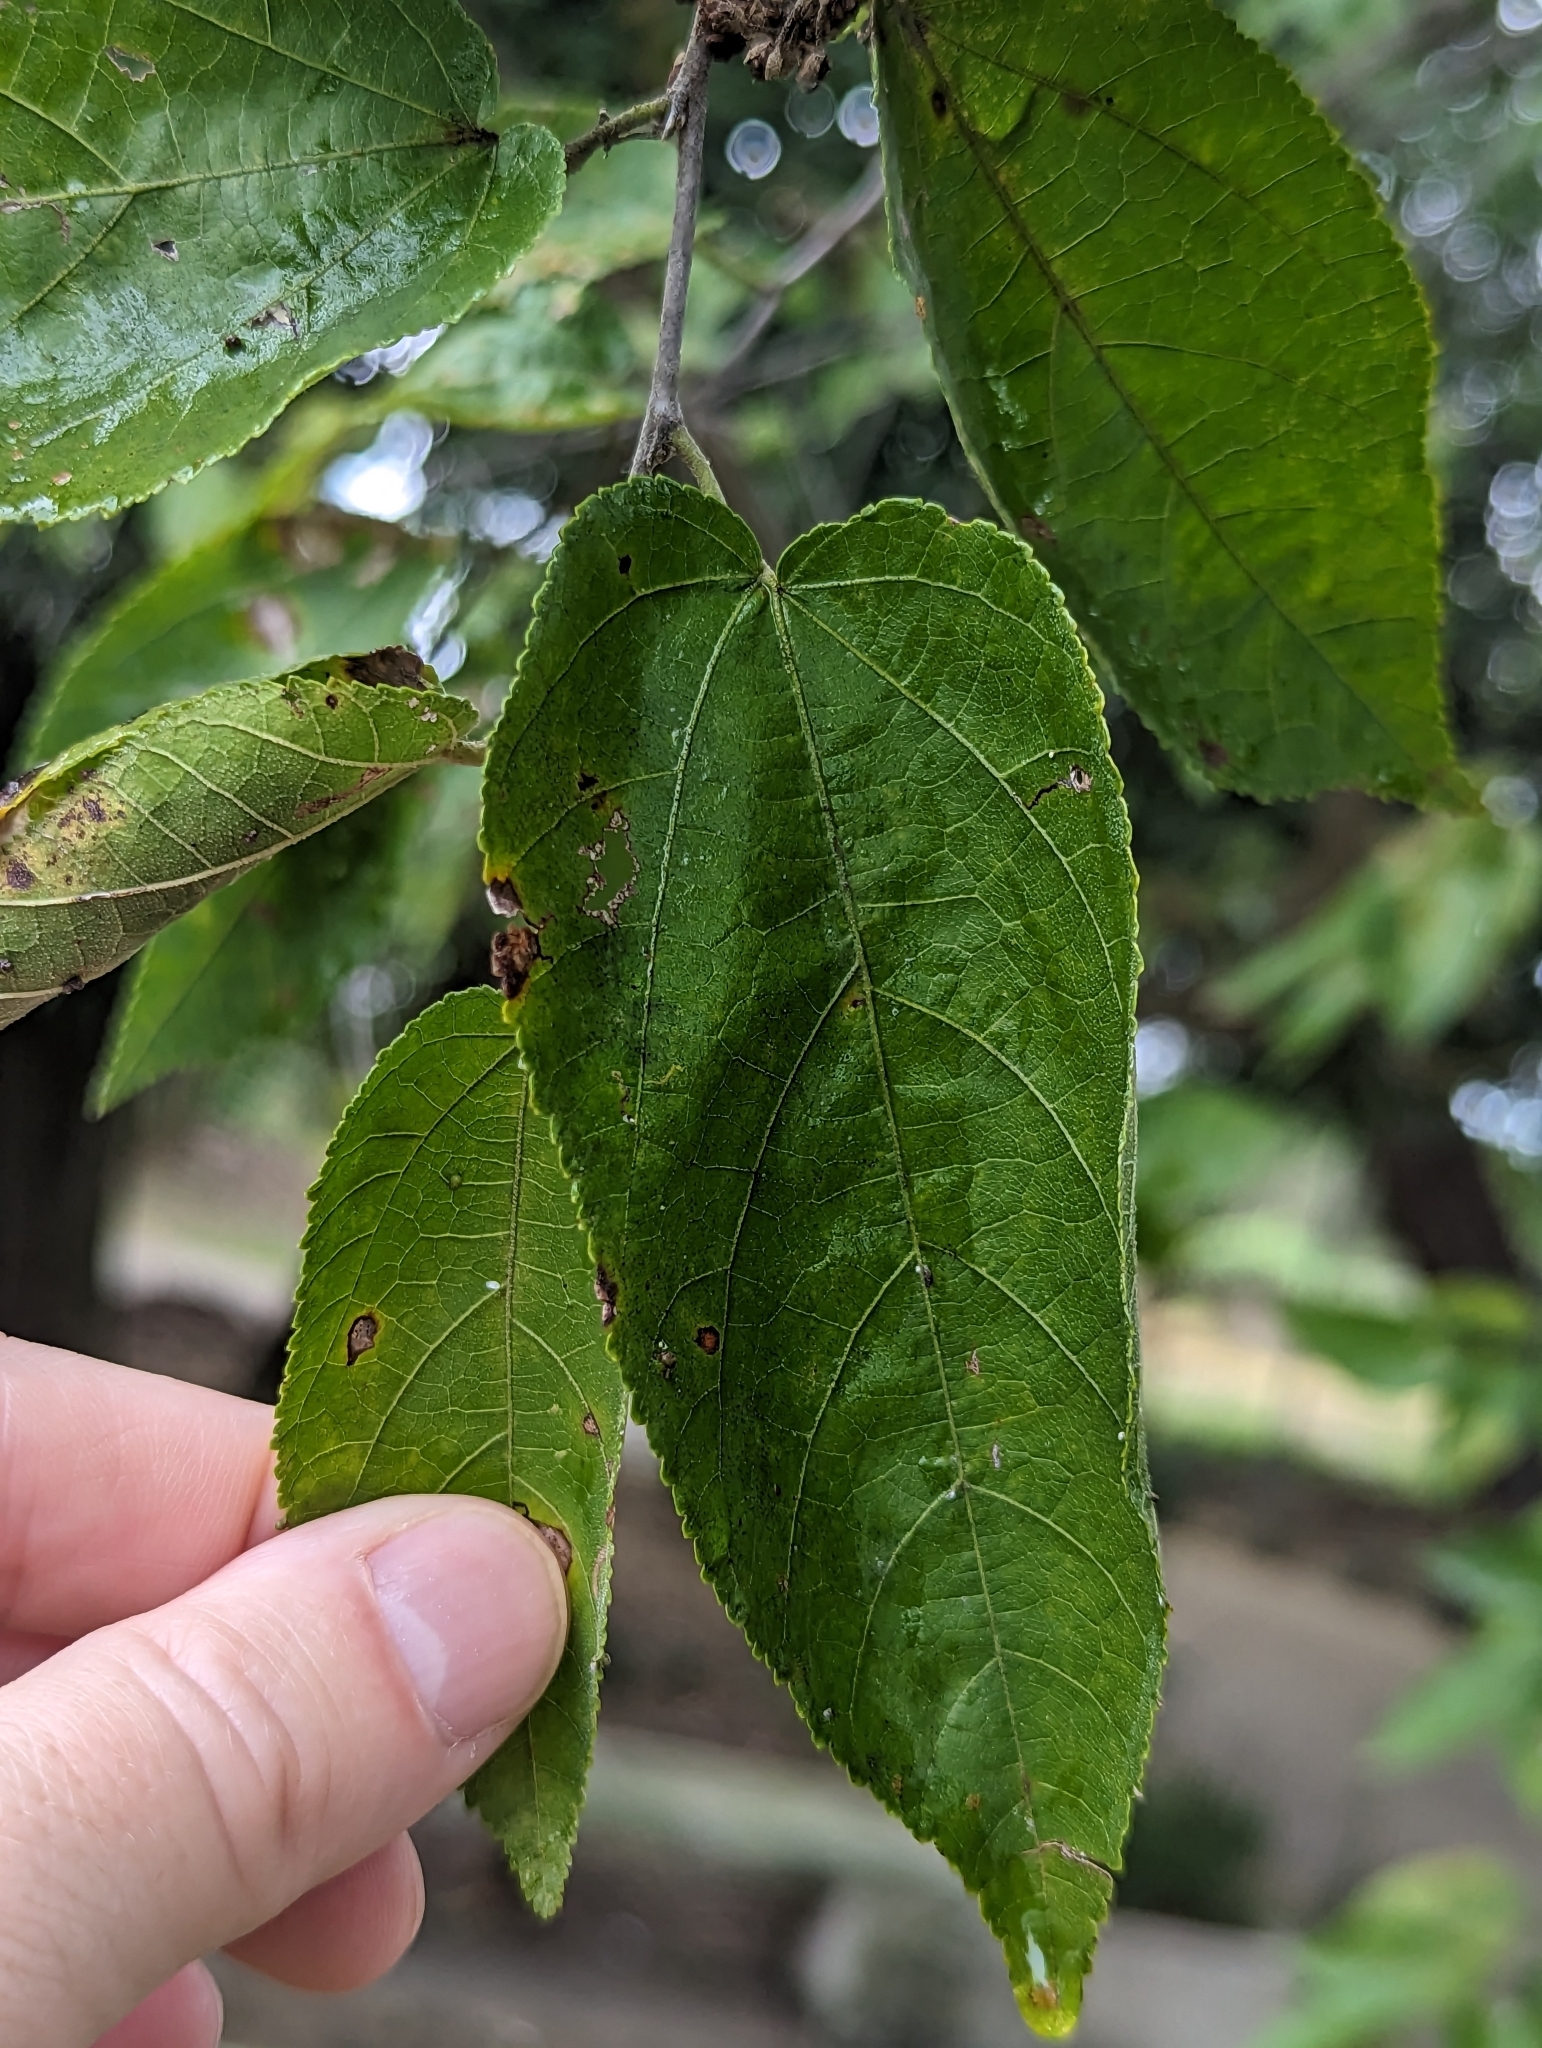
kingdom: Plantae
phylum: Tracheophyta
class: Magnoliopsida
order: Malvales
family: Malvaceae
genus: Guazuma
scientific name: Guazuma ulmifolia
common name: Bastard-cedar
